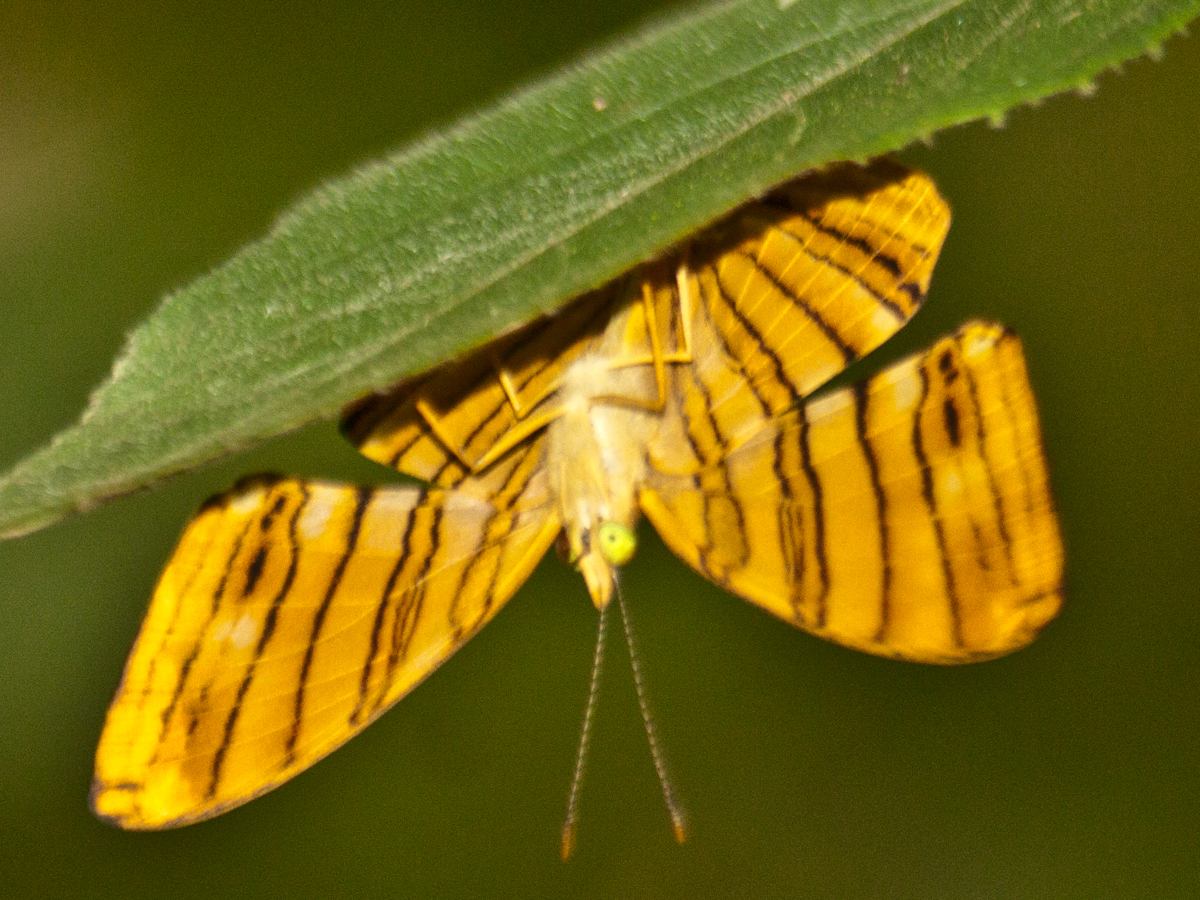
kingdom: Animalia
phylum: Arthropoda
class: Insecta
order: Lepidoptera
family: Nymphalidae
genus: Chersonesia
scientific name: Chersonesia risa
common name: Common maplet
